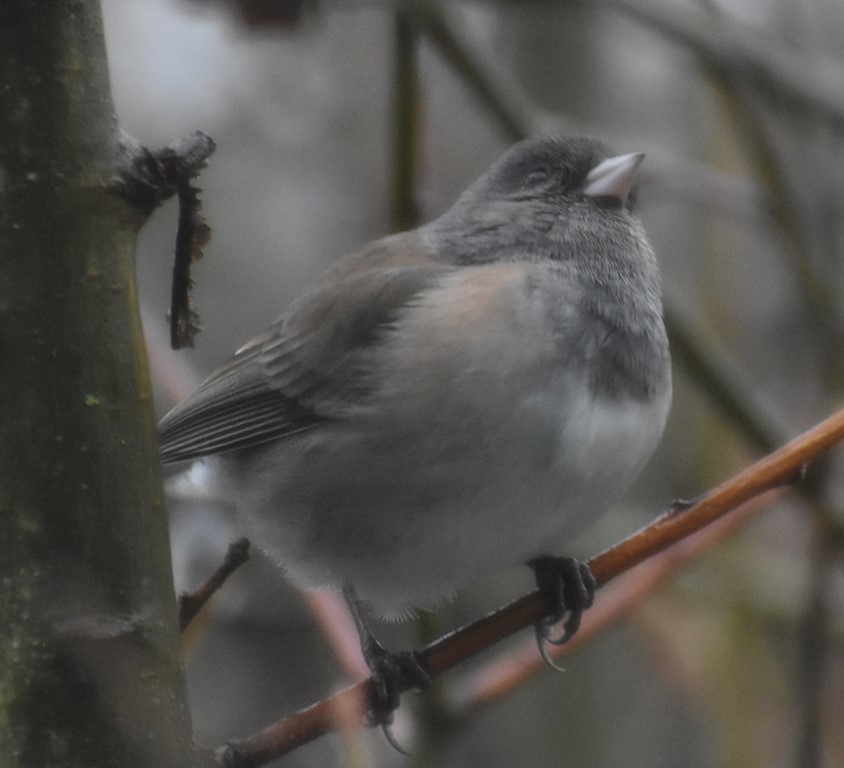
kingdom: Animalia
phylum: Chordata
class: Aves
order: Passeriformes
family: Passerellidae
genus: Junco
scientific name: Junco hyemalis
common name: Dark-eyed junco
